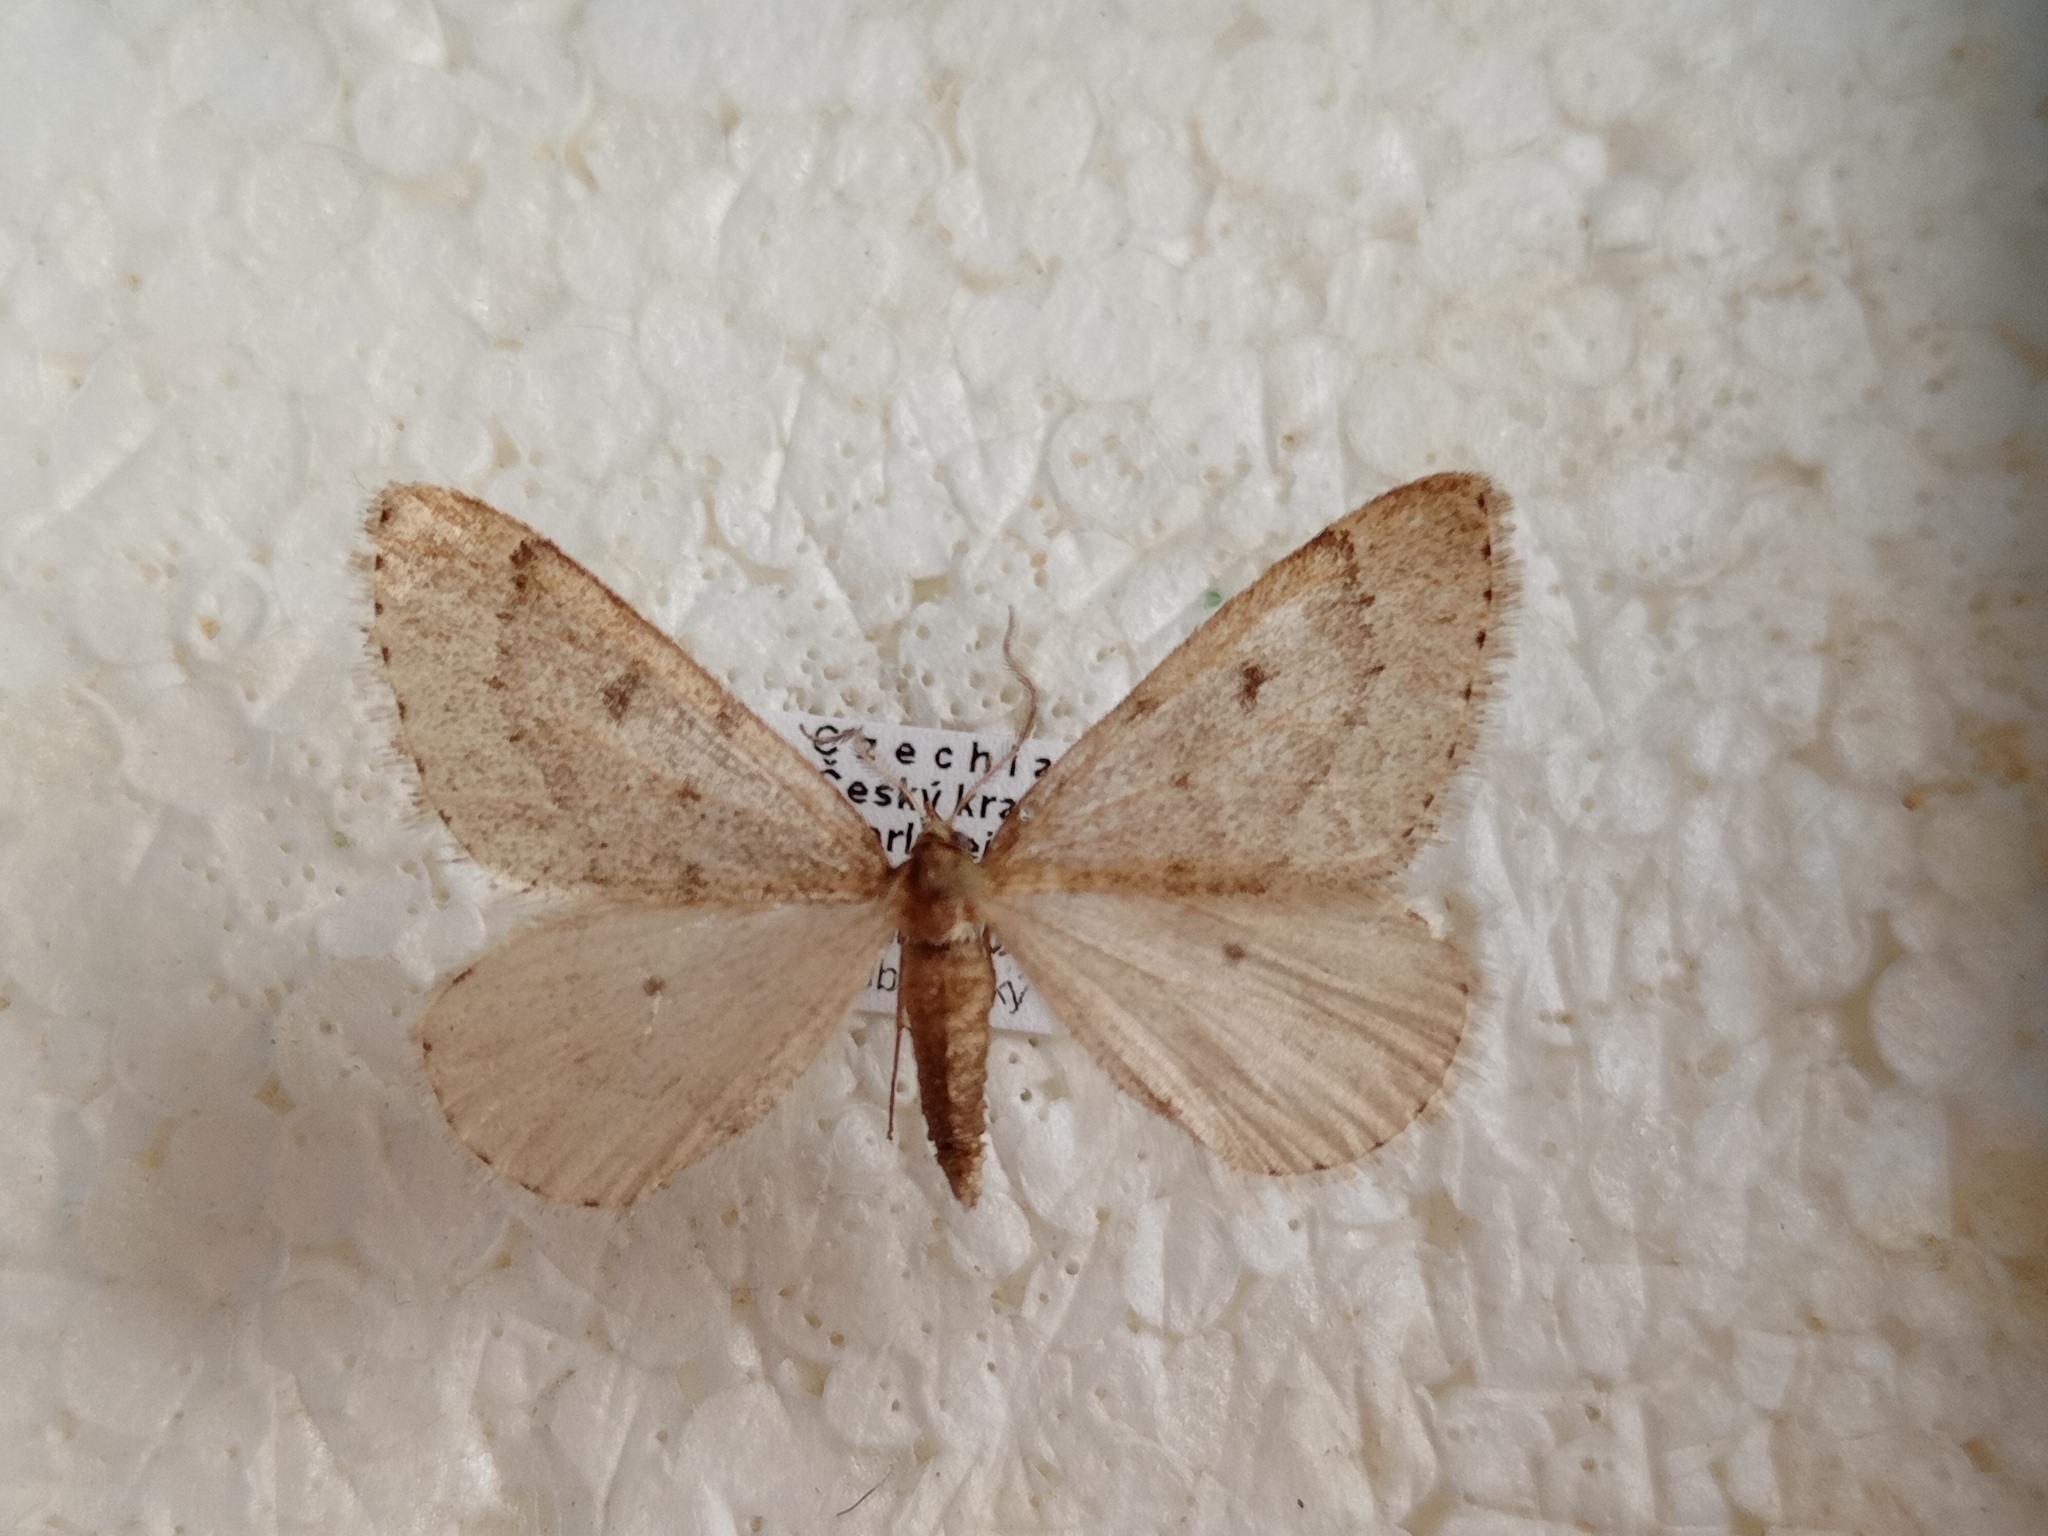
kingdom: Animalia
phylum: Arthropoda
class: Insecta
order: Lepidoptera
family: Geometridae
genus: Theria
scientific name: Theria rupicapraria
